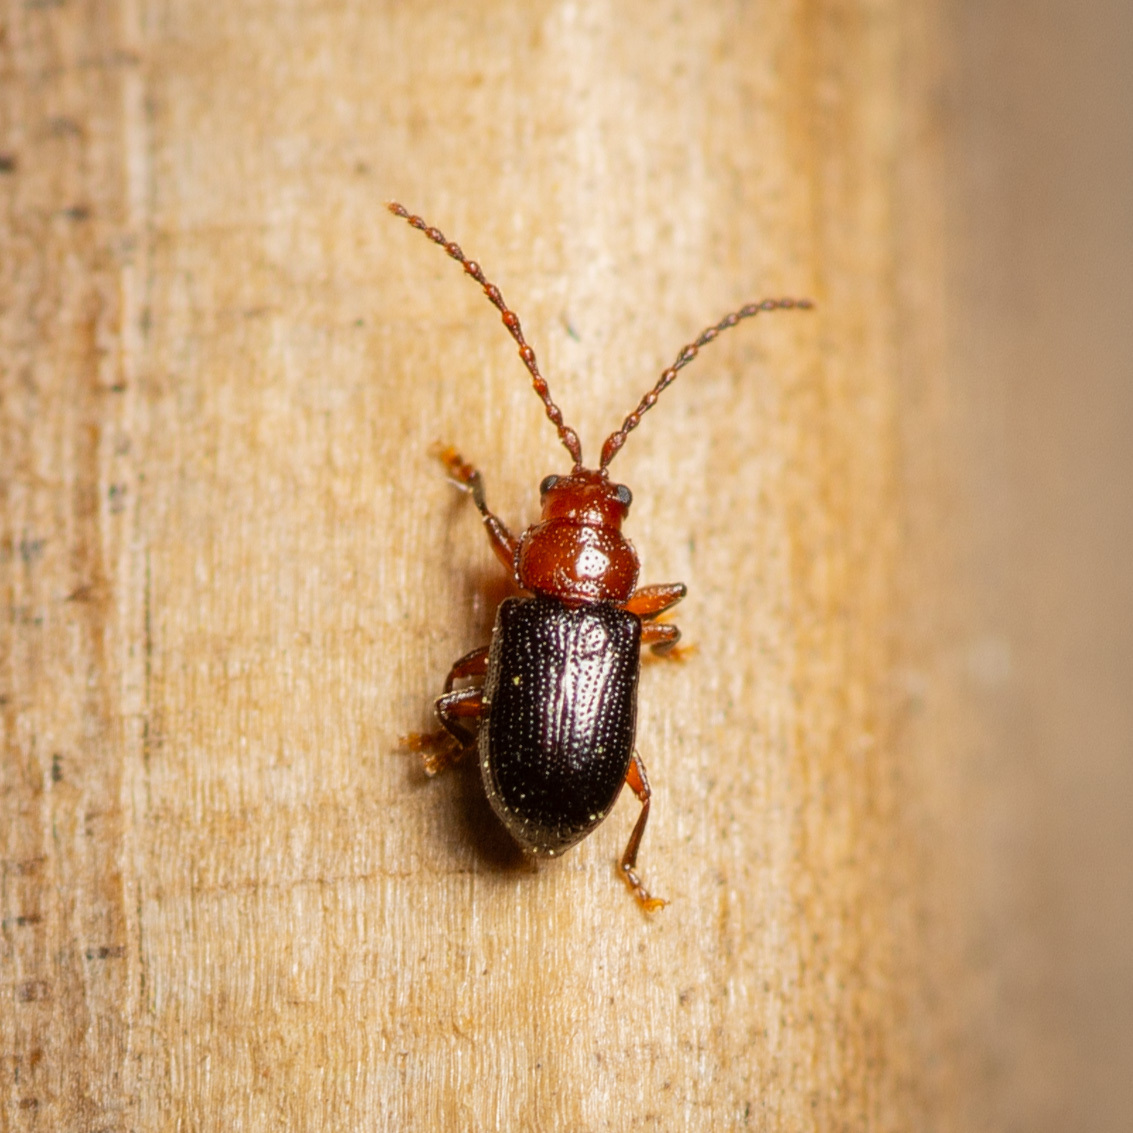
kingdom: Animalia
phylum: Arthropoda
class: Insecta
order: Coleoptera
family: Chrysomelidae
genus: Aulacothorax
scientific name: Aulacothorax
